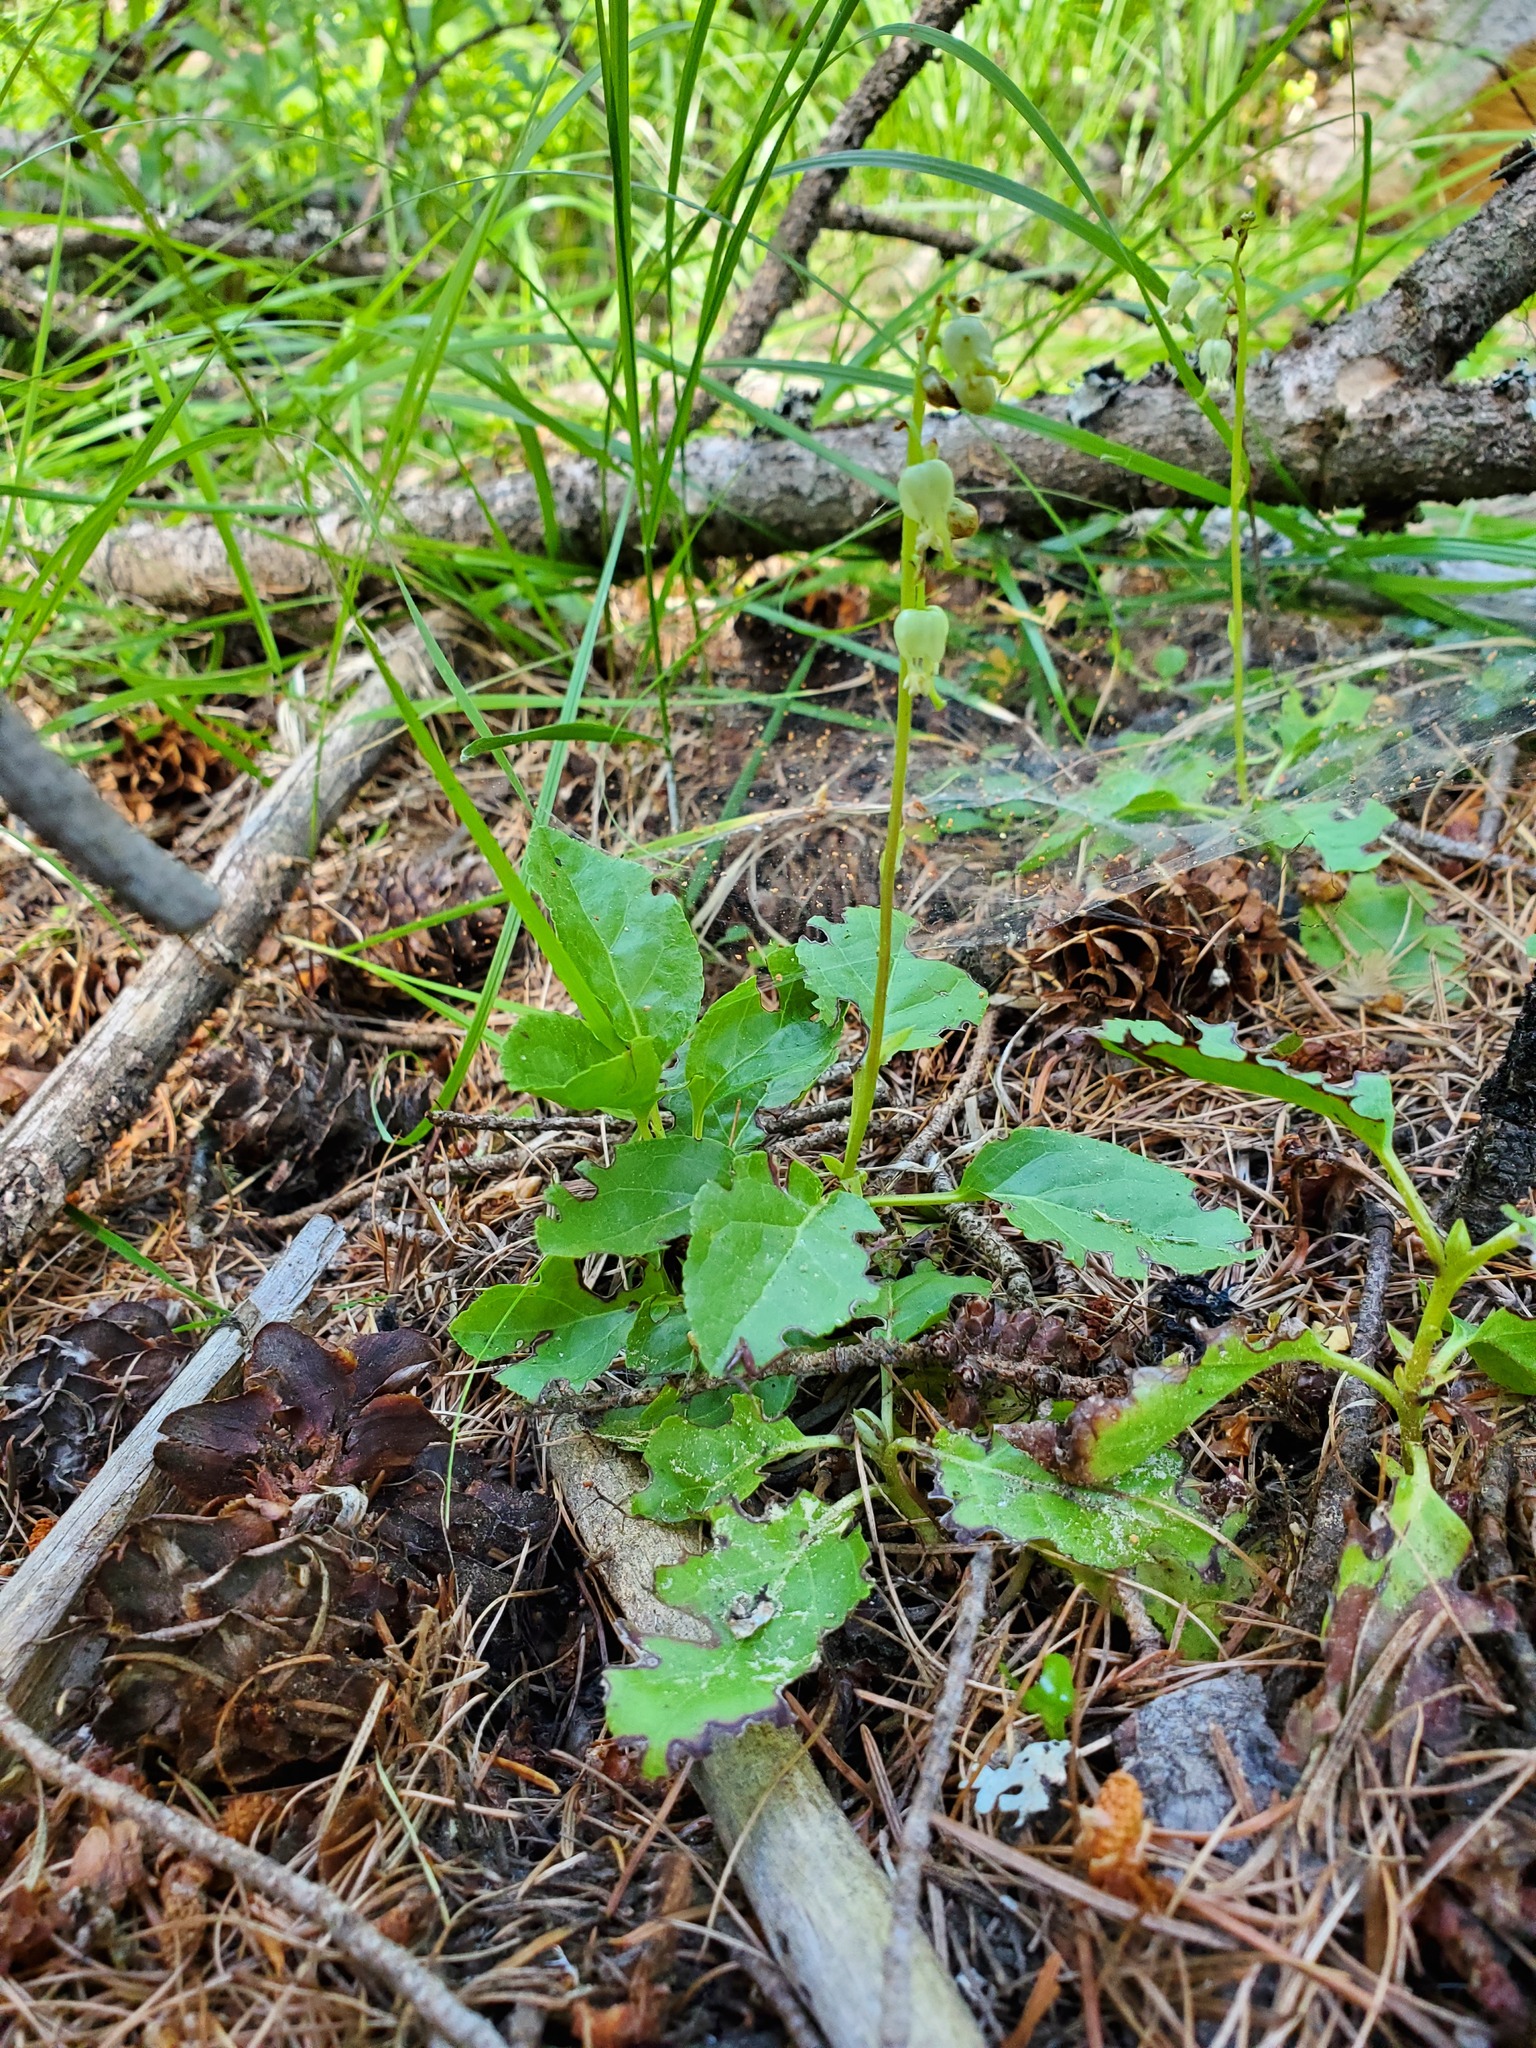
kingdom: Plantae
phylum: Tracheophyta
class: Magnoliopsida
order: Ericales
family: Ericaceae
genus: Orthilia
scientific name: Orthilia secunda
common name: One-sided orthilia
